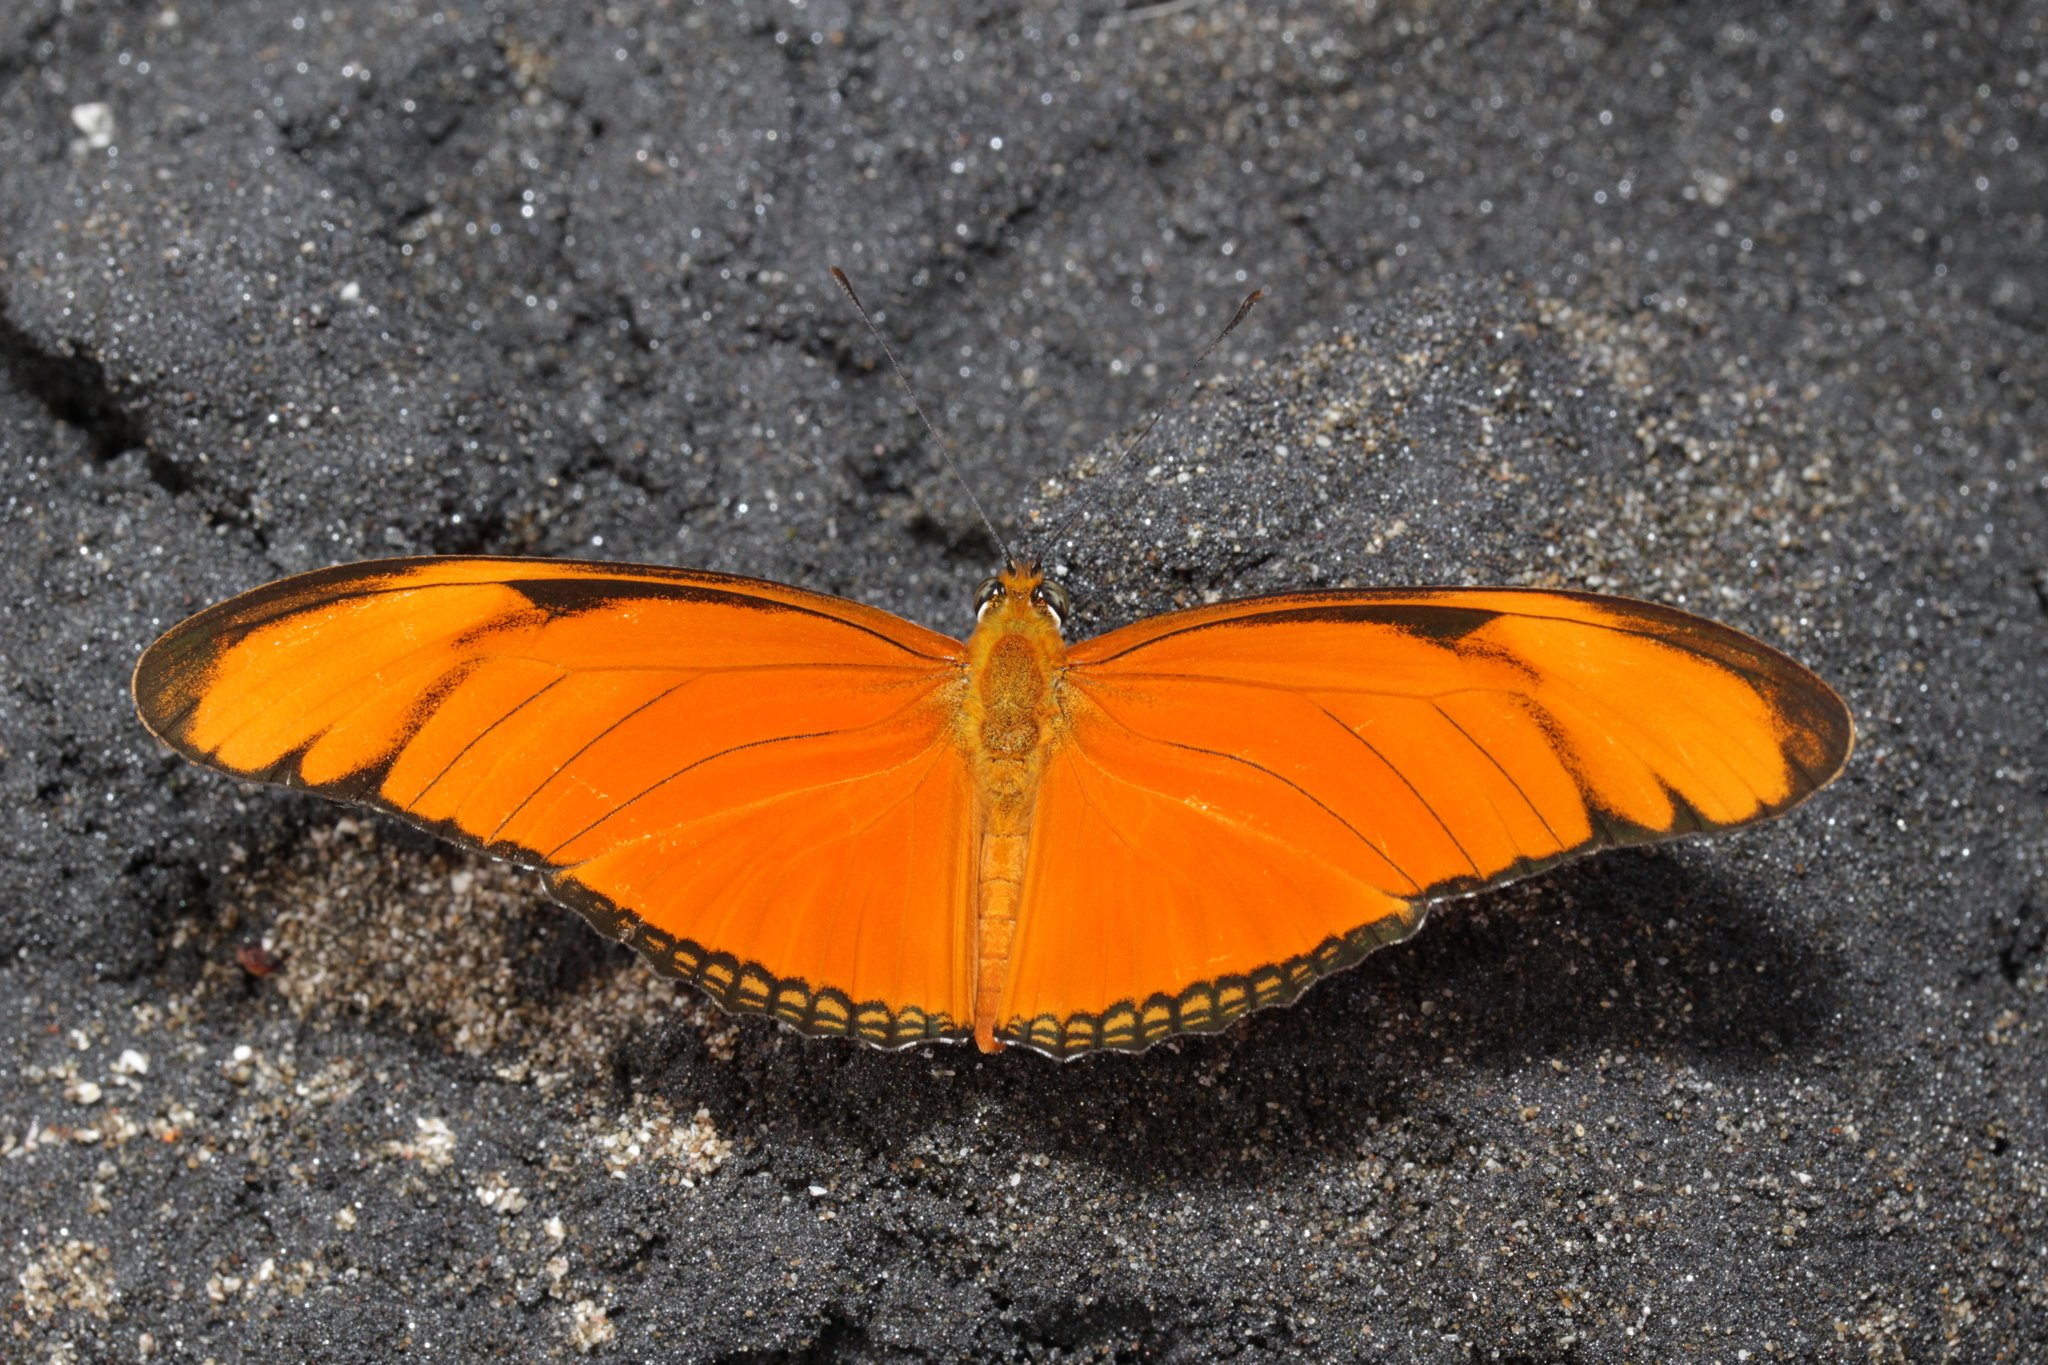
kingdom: Animalia
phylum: Arthropoda
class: Insecta
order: Lepidoptera
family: Nymphalidae
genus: Dryas
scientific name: Dryas iulia
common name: Flambeau
